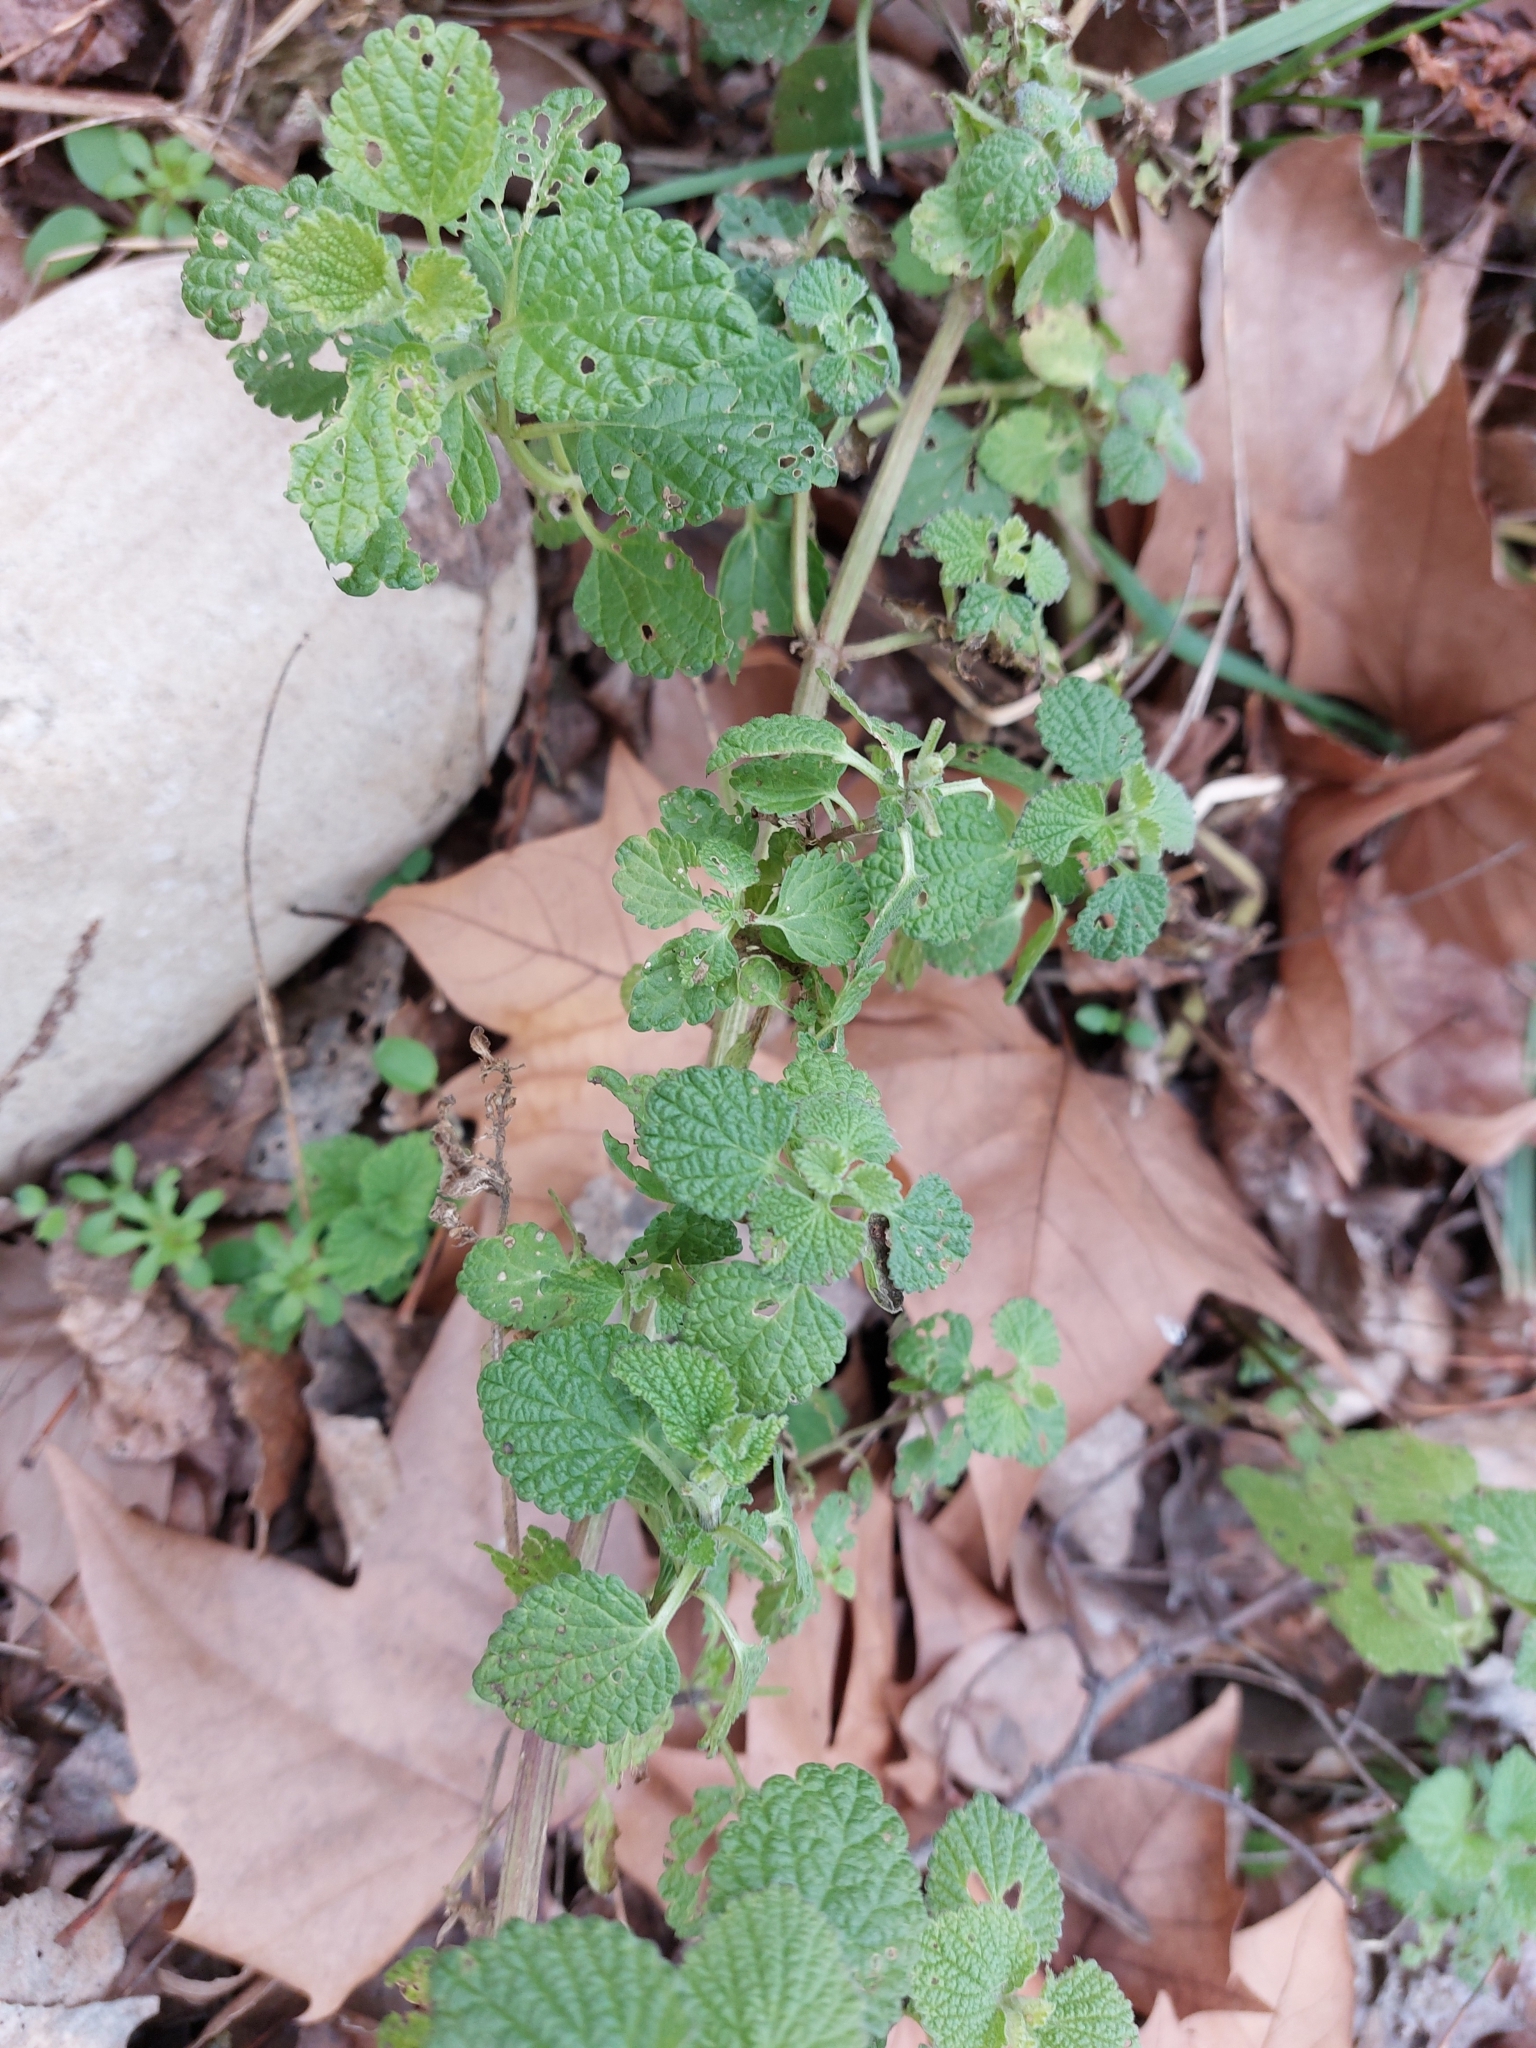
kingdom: Plantae
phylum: Tracheophyta
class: Magnoliopsida
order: Lamiales
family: Lamiaceae
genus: Ballota
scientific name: Ballota nigra
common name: Black horehound
